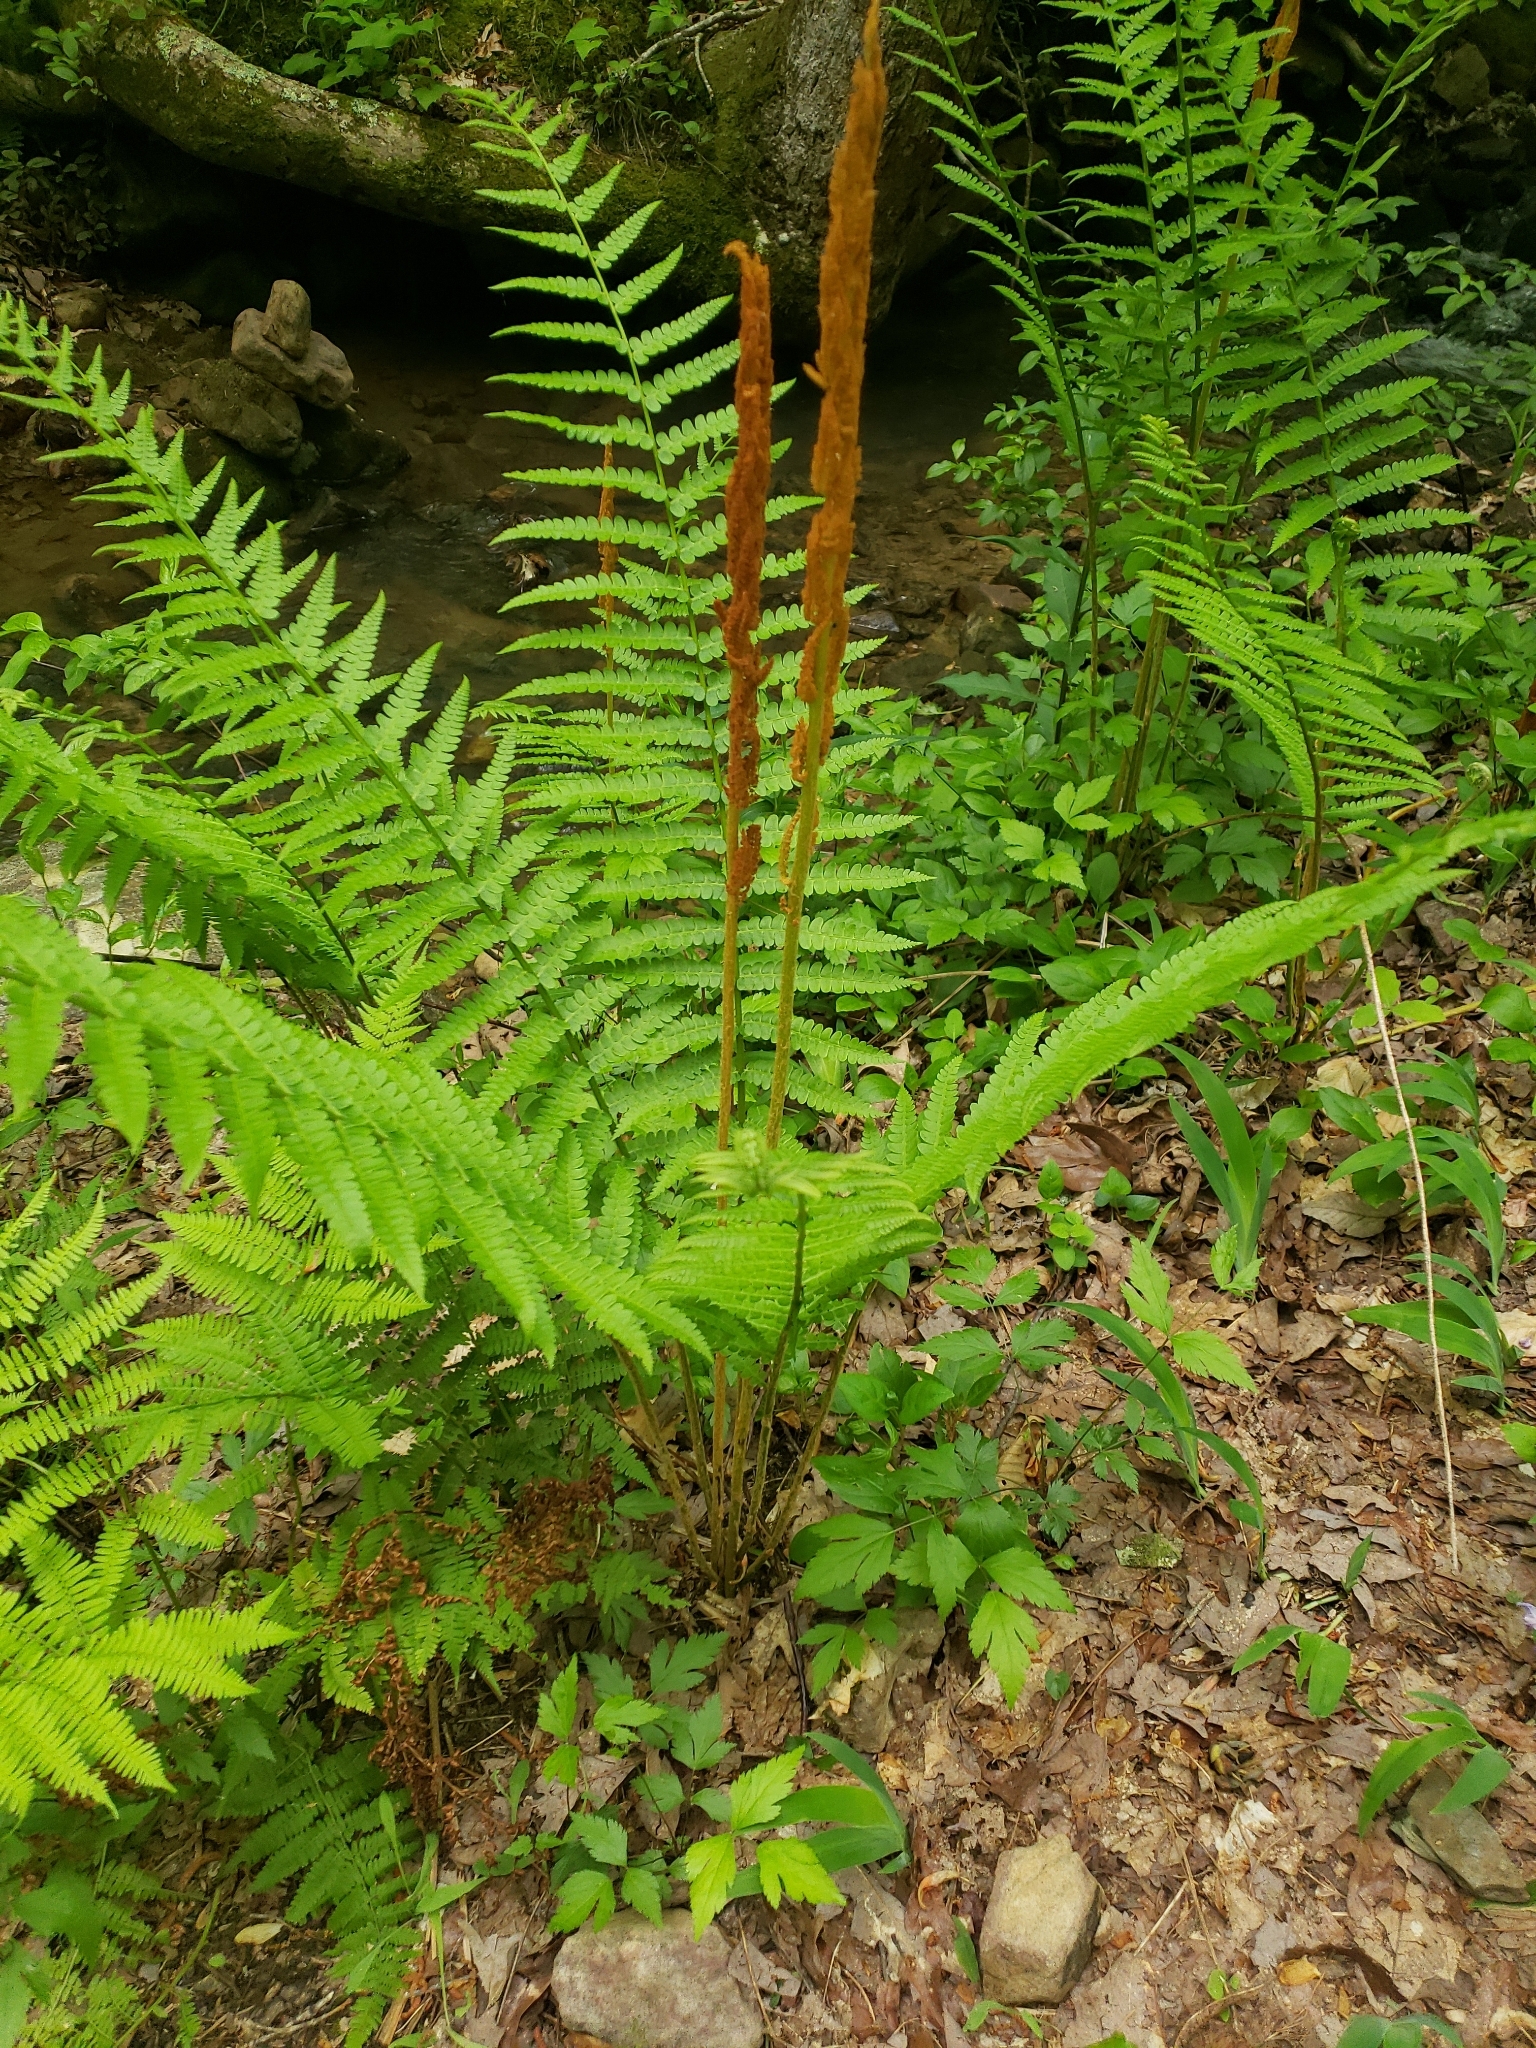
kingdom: Plantae
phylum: Tracheophyta
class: Polypodiopsida
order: Osmundales
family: Osmundaceae
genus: Osmundastrum
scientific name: Osmundastrum cinnamomeum
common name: Cinnamon fern
